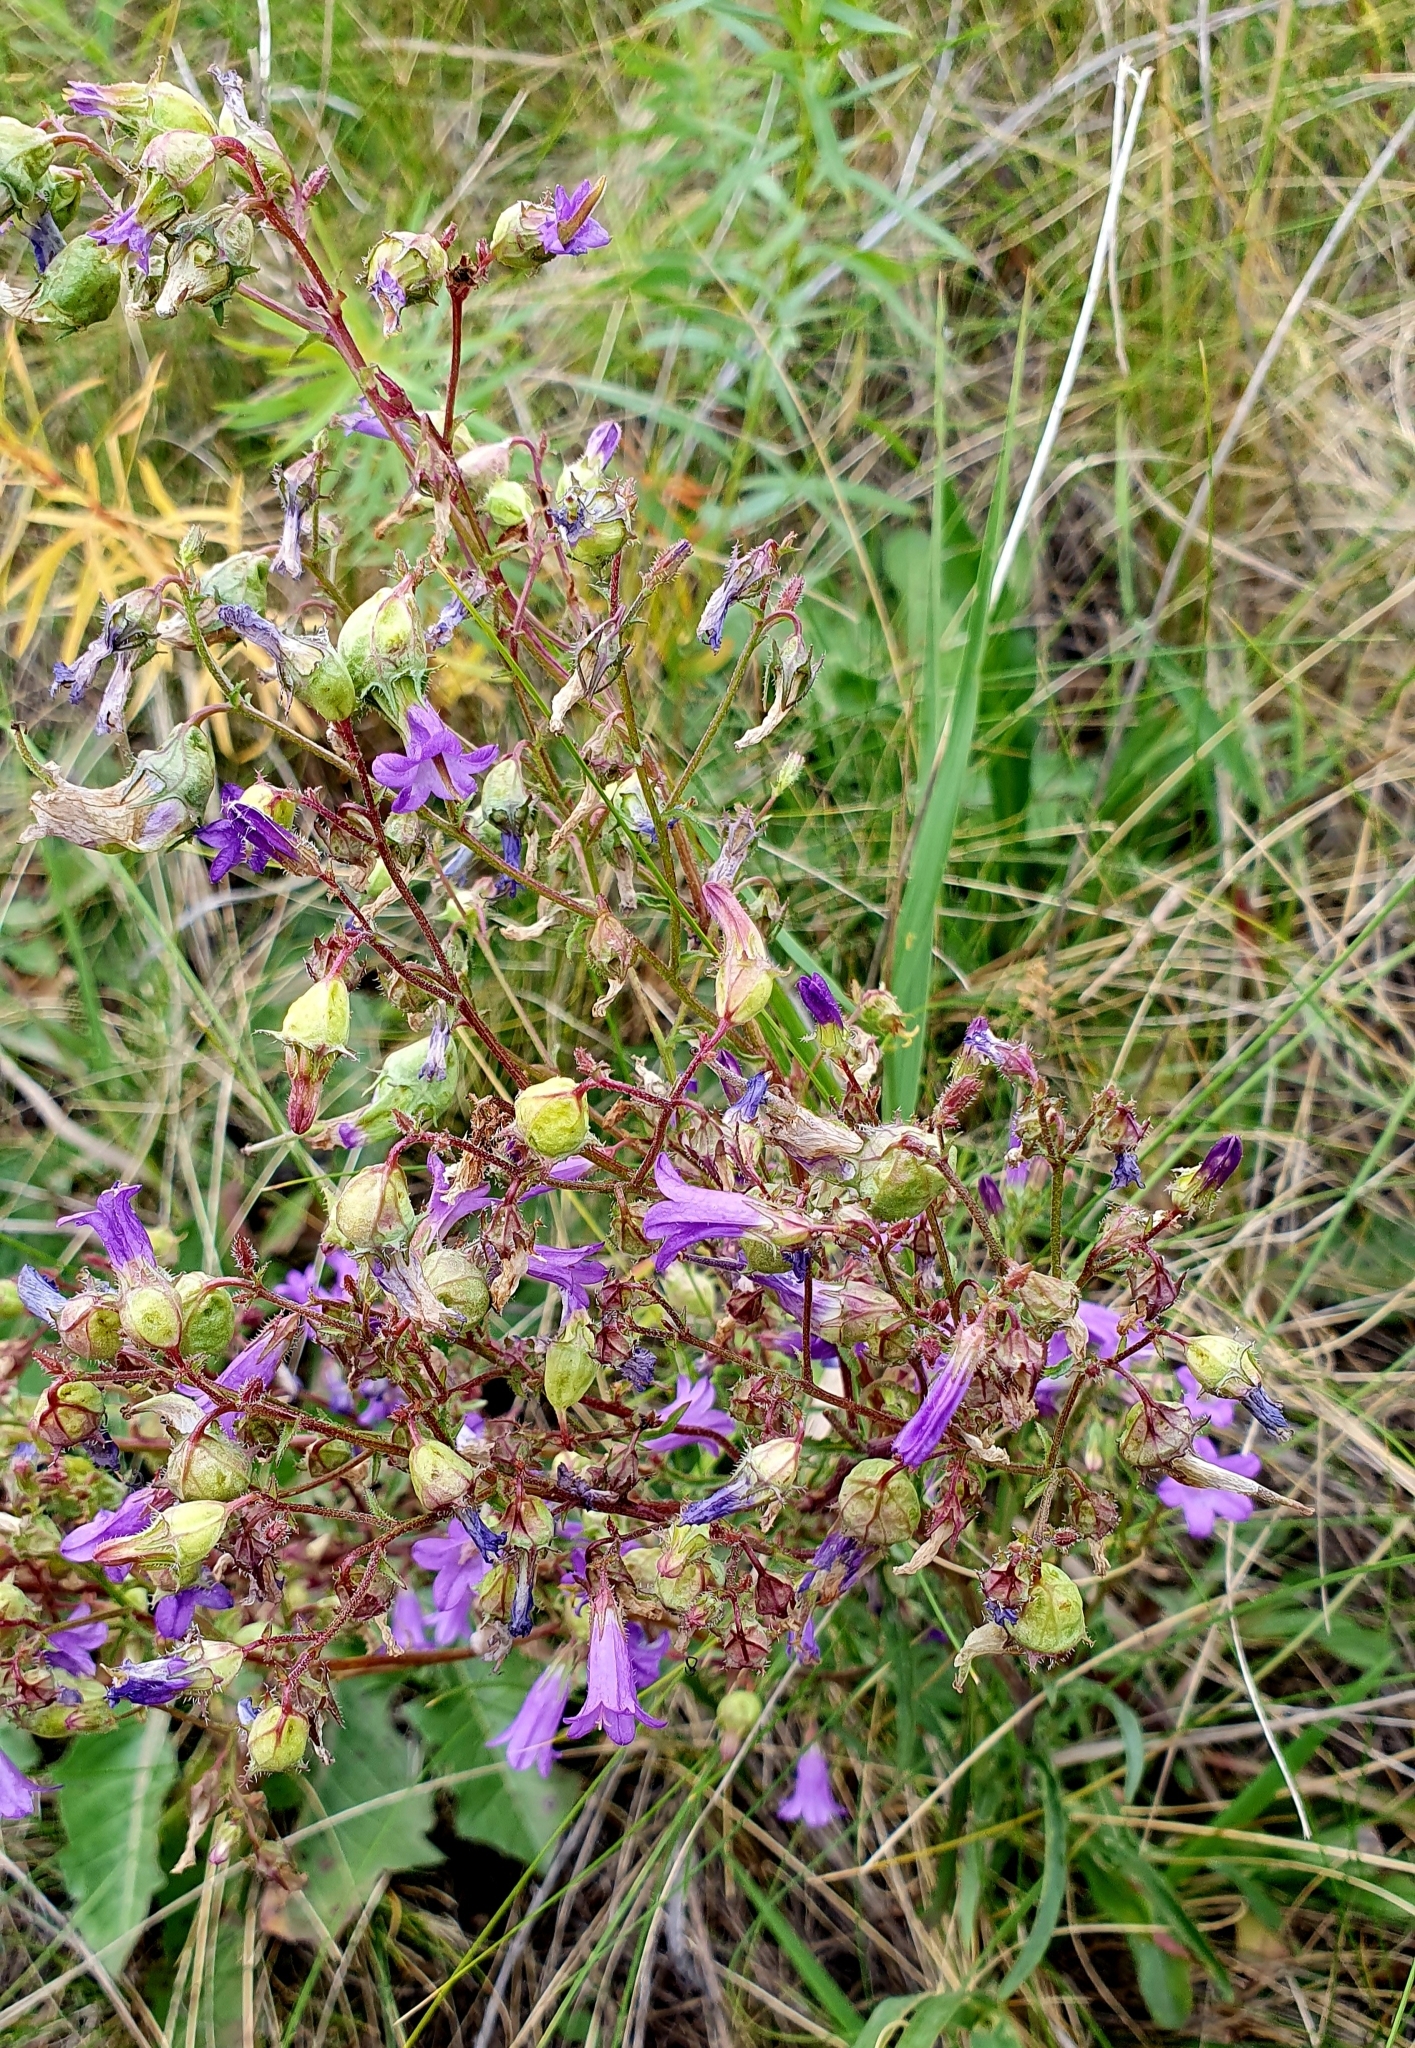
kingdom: Plantae
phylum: Tracheophyta
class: Magnoliopsida
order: Asterales
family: Campanulaceae
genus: Campanula
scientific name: Campanula sibirica
